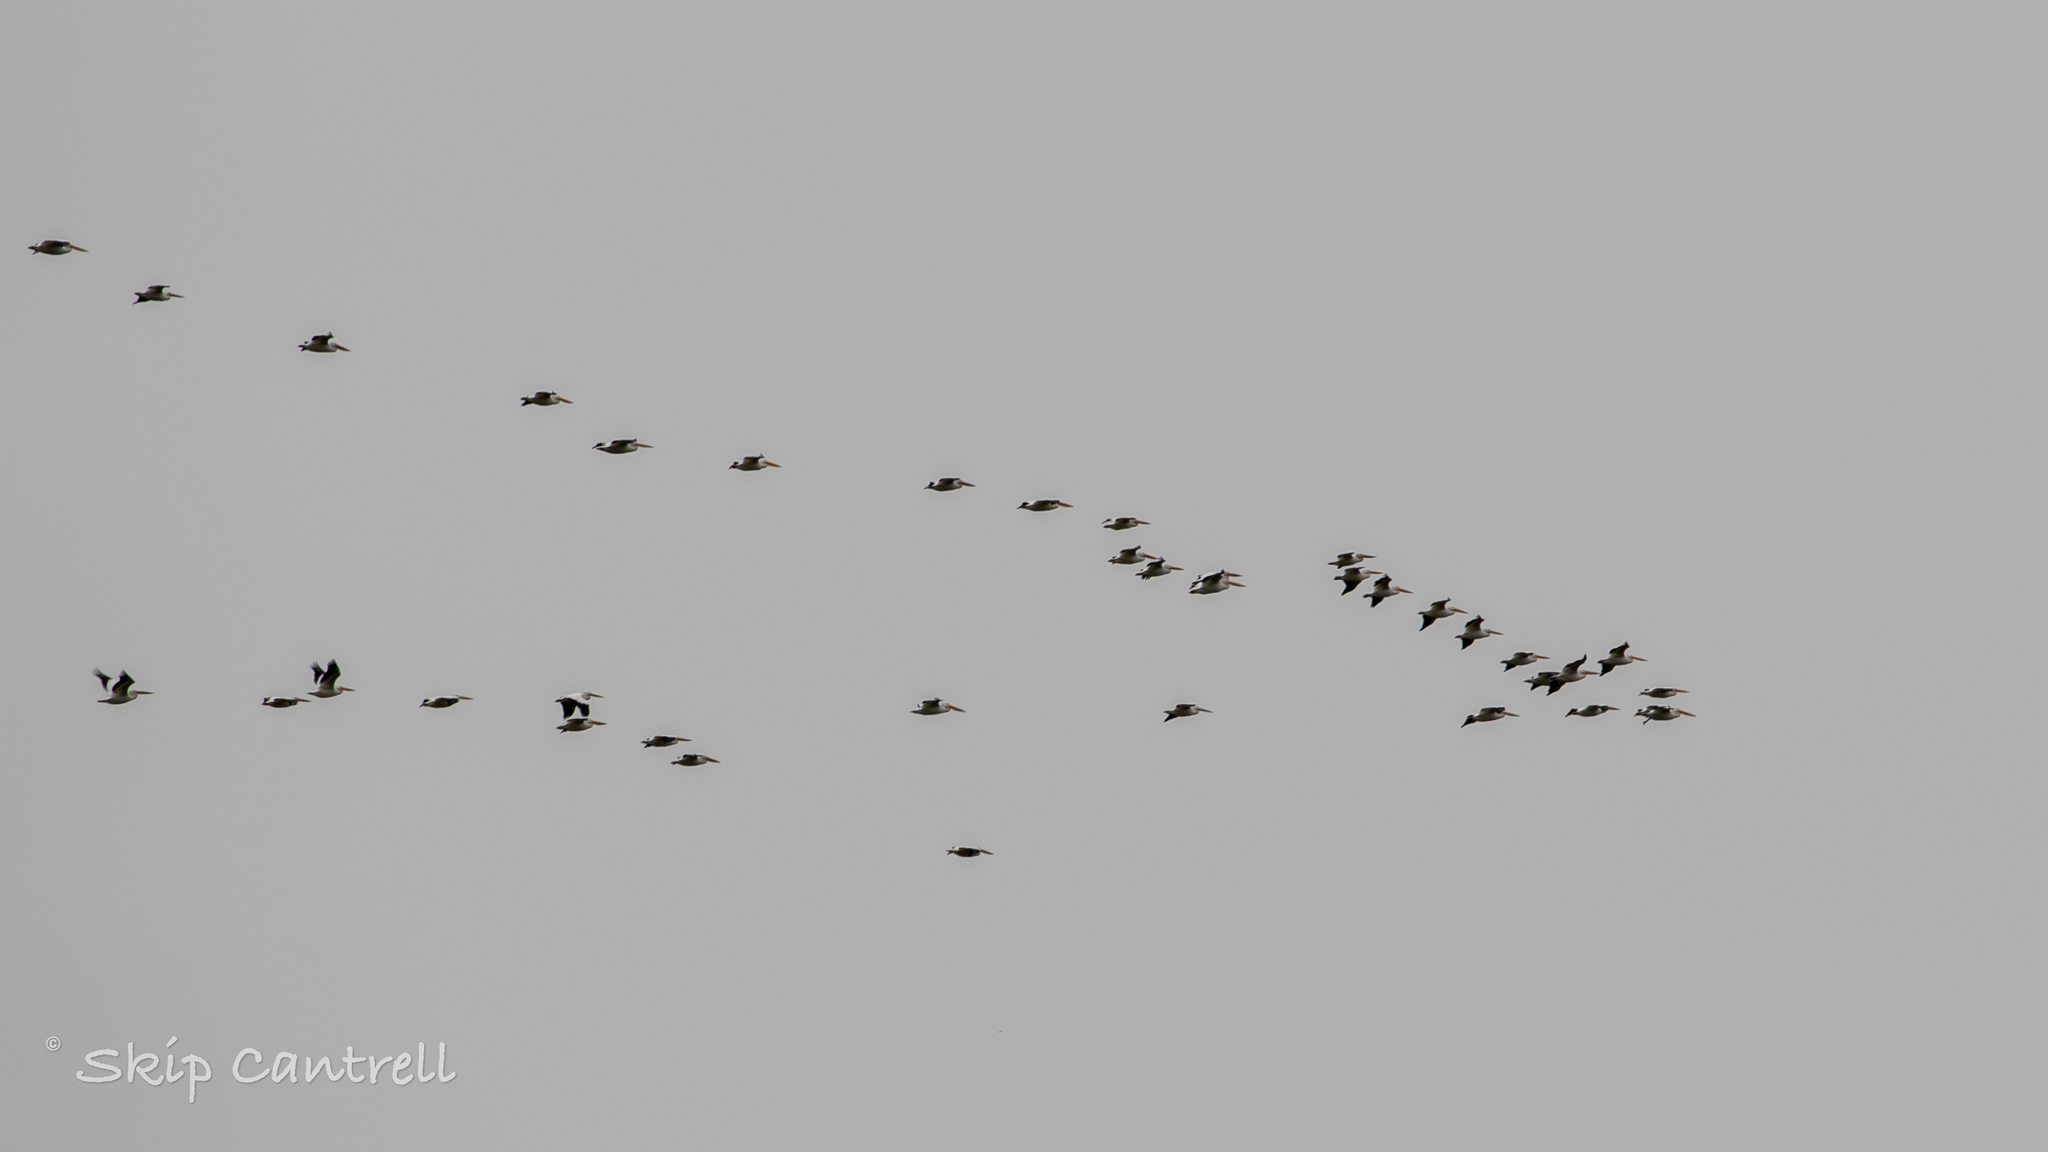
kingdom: Animalia
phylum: Chordata
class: Aves
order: Pelecaniformes
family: Pelecanidae
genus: Pelecanus
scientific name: Pelecanus erythrorhynchos
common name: American white pelican
